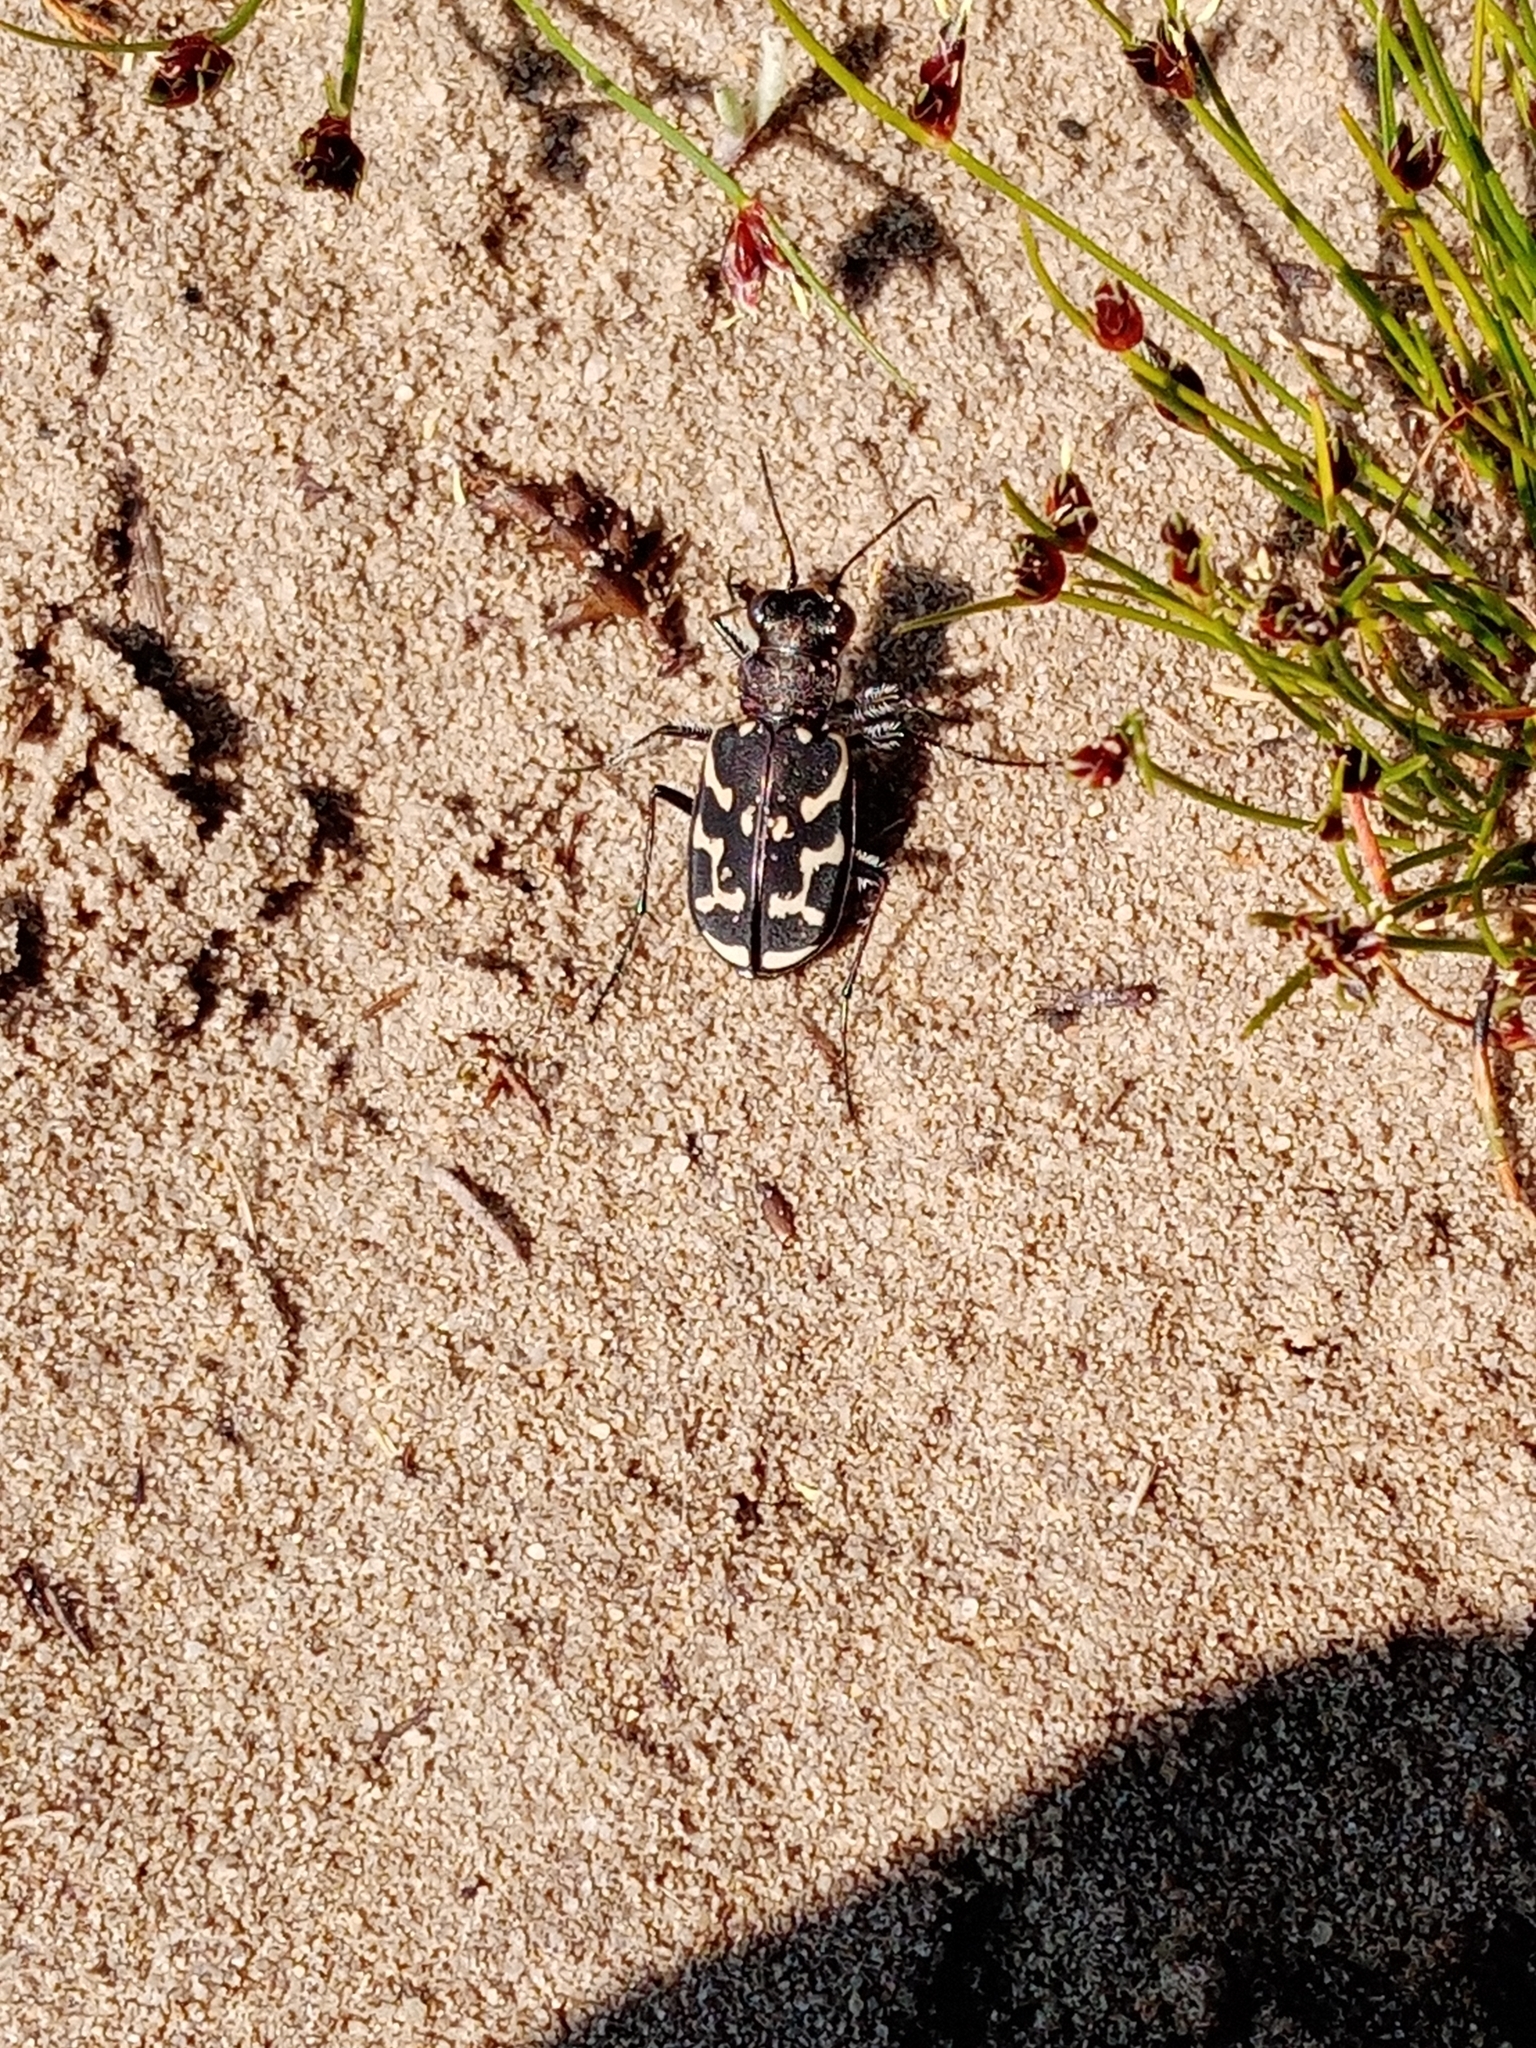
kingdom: Animalia
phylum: Arthropoda
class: Insecta
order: Coleoptera
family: Carabidae
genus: Cicindela
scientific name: Cicindela lurida
